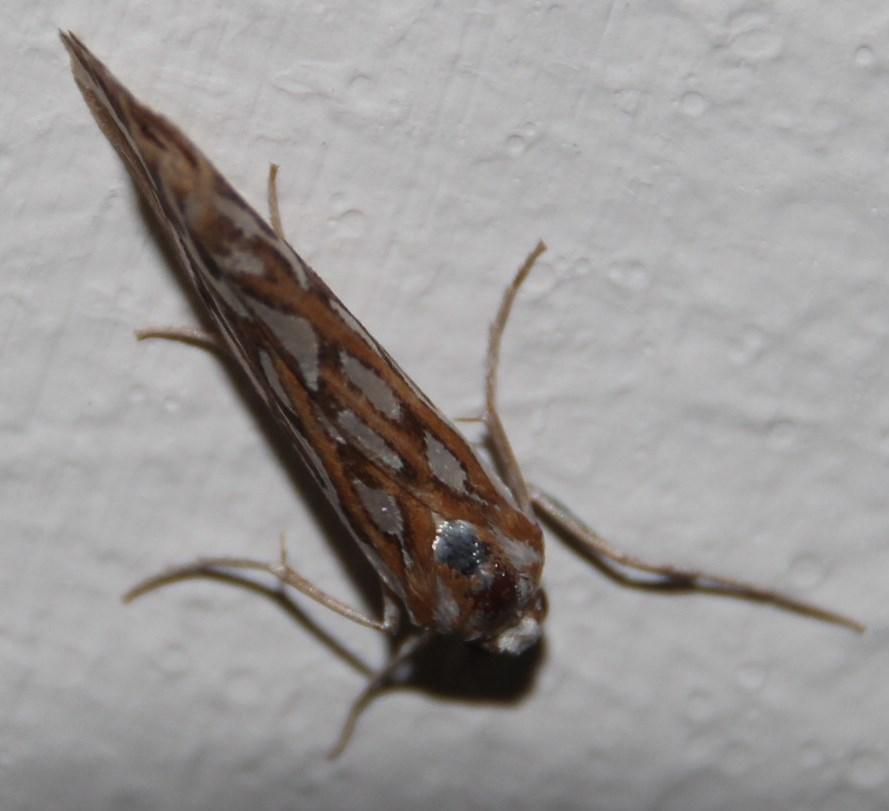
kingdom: Animalia
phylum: Arthropoda
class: Insecta
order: Lepidoptera
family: Geometridae
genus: Argyrophora
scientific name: Argyrophora trofonia
